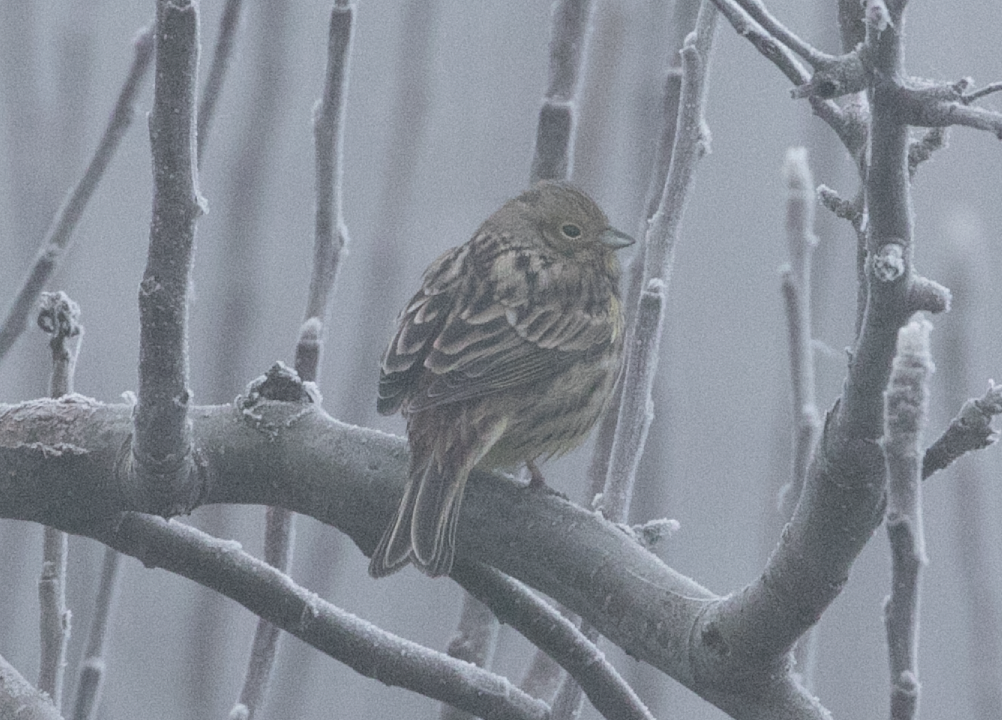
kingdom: Animalia
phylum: Chordata
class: Aves
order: Passeriformes
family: Emberizidae
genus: Emberiza
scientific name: Emberiza citrinella
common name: Yellowhammer
